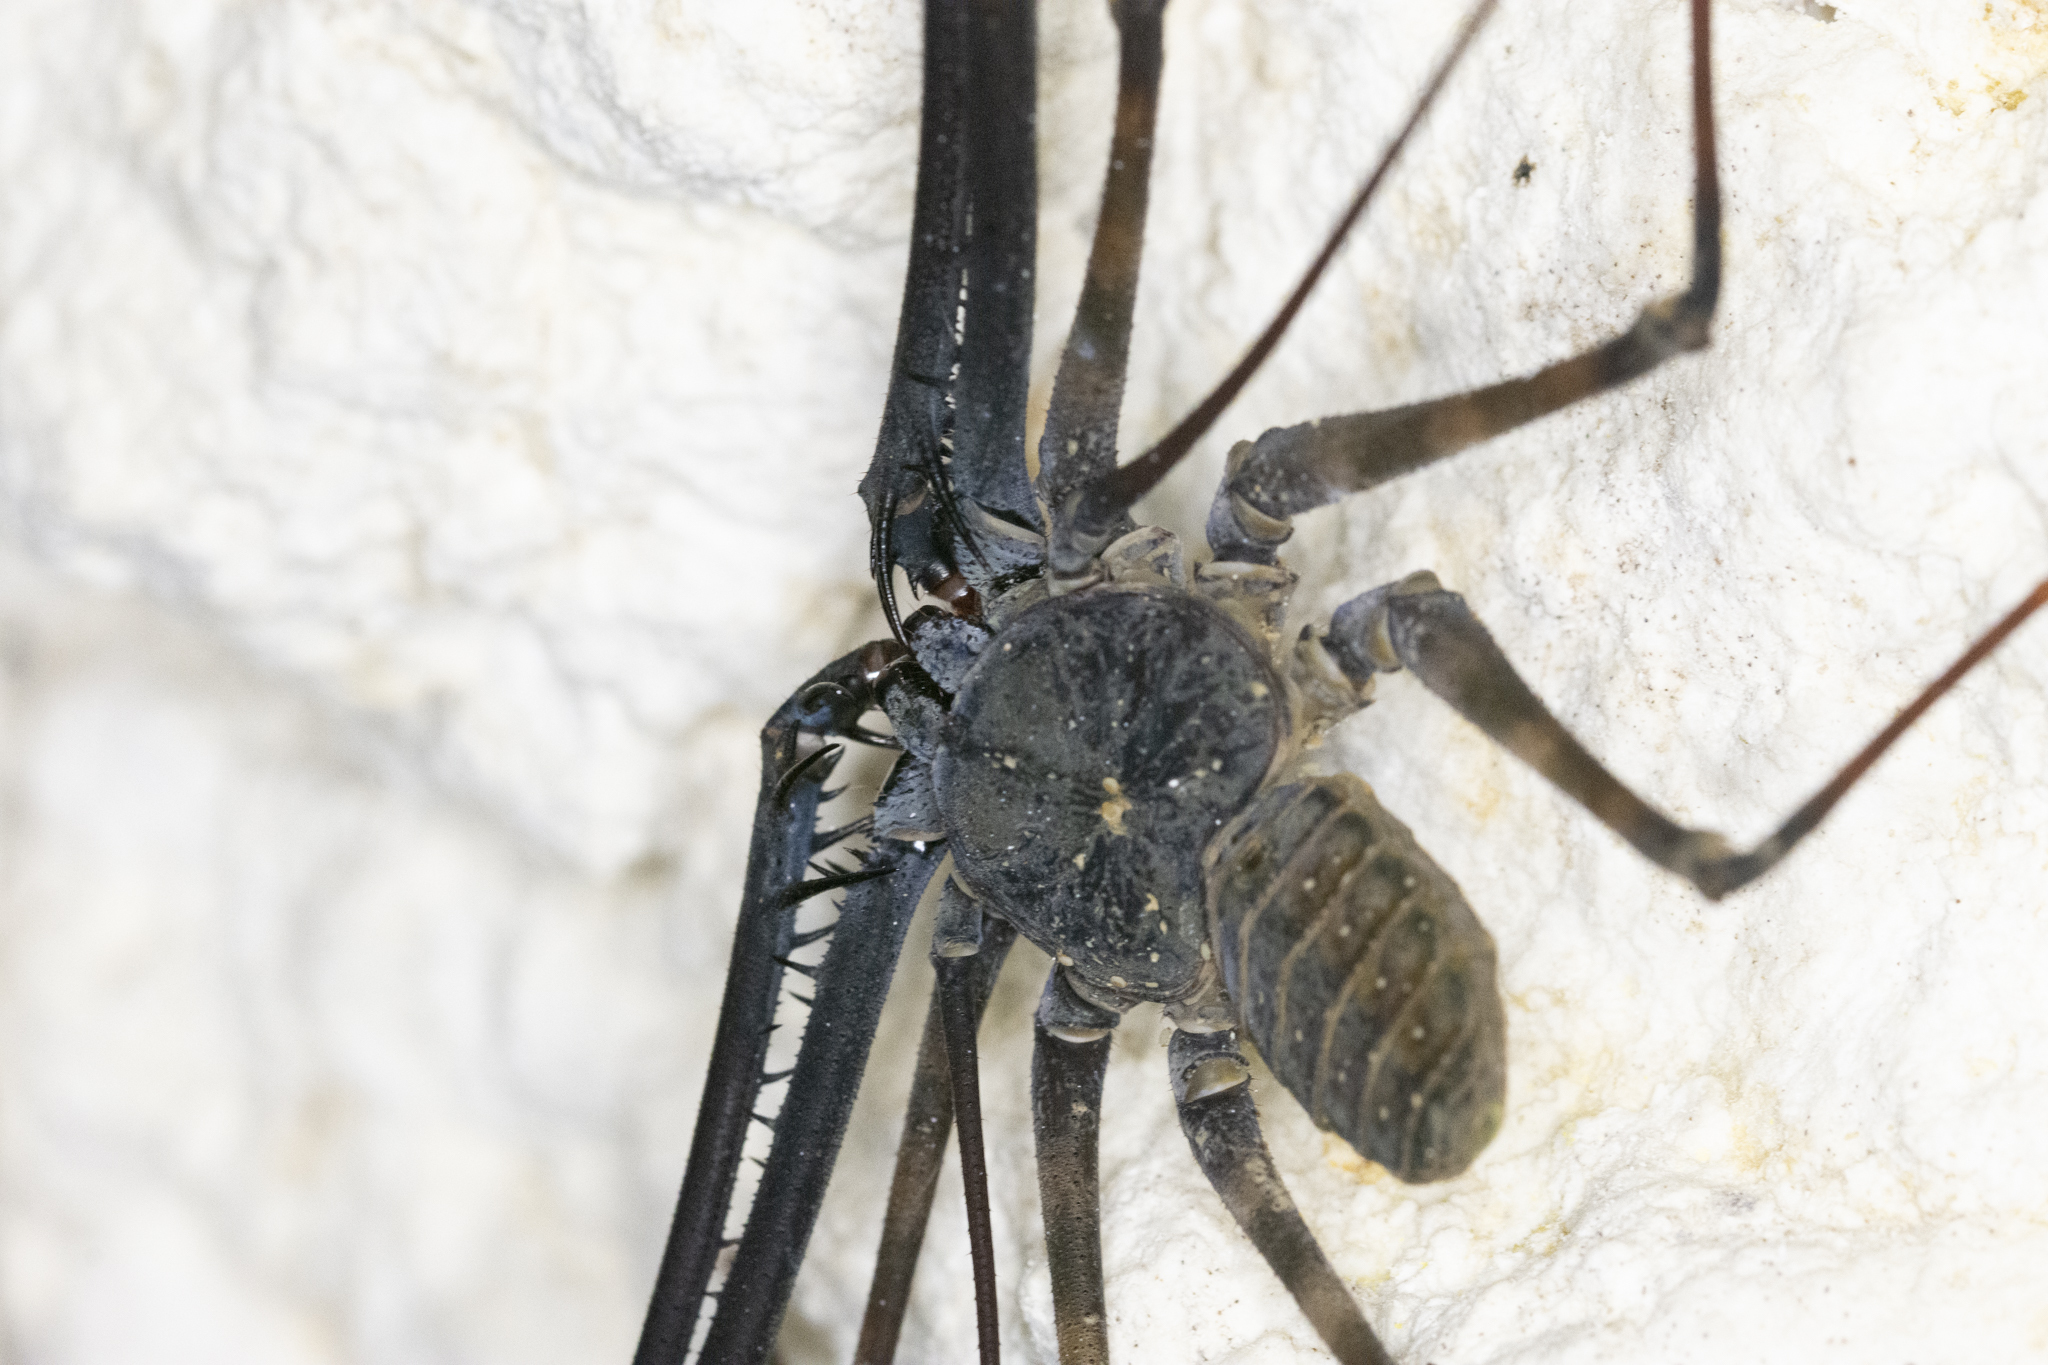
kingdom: Animalia
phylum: Arthropoda
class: Arachnida
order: Amblypygi
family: Charontidae
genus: Charon
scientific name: Charon grayi
